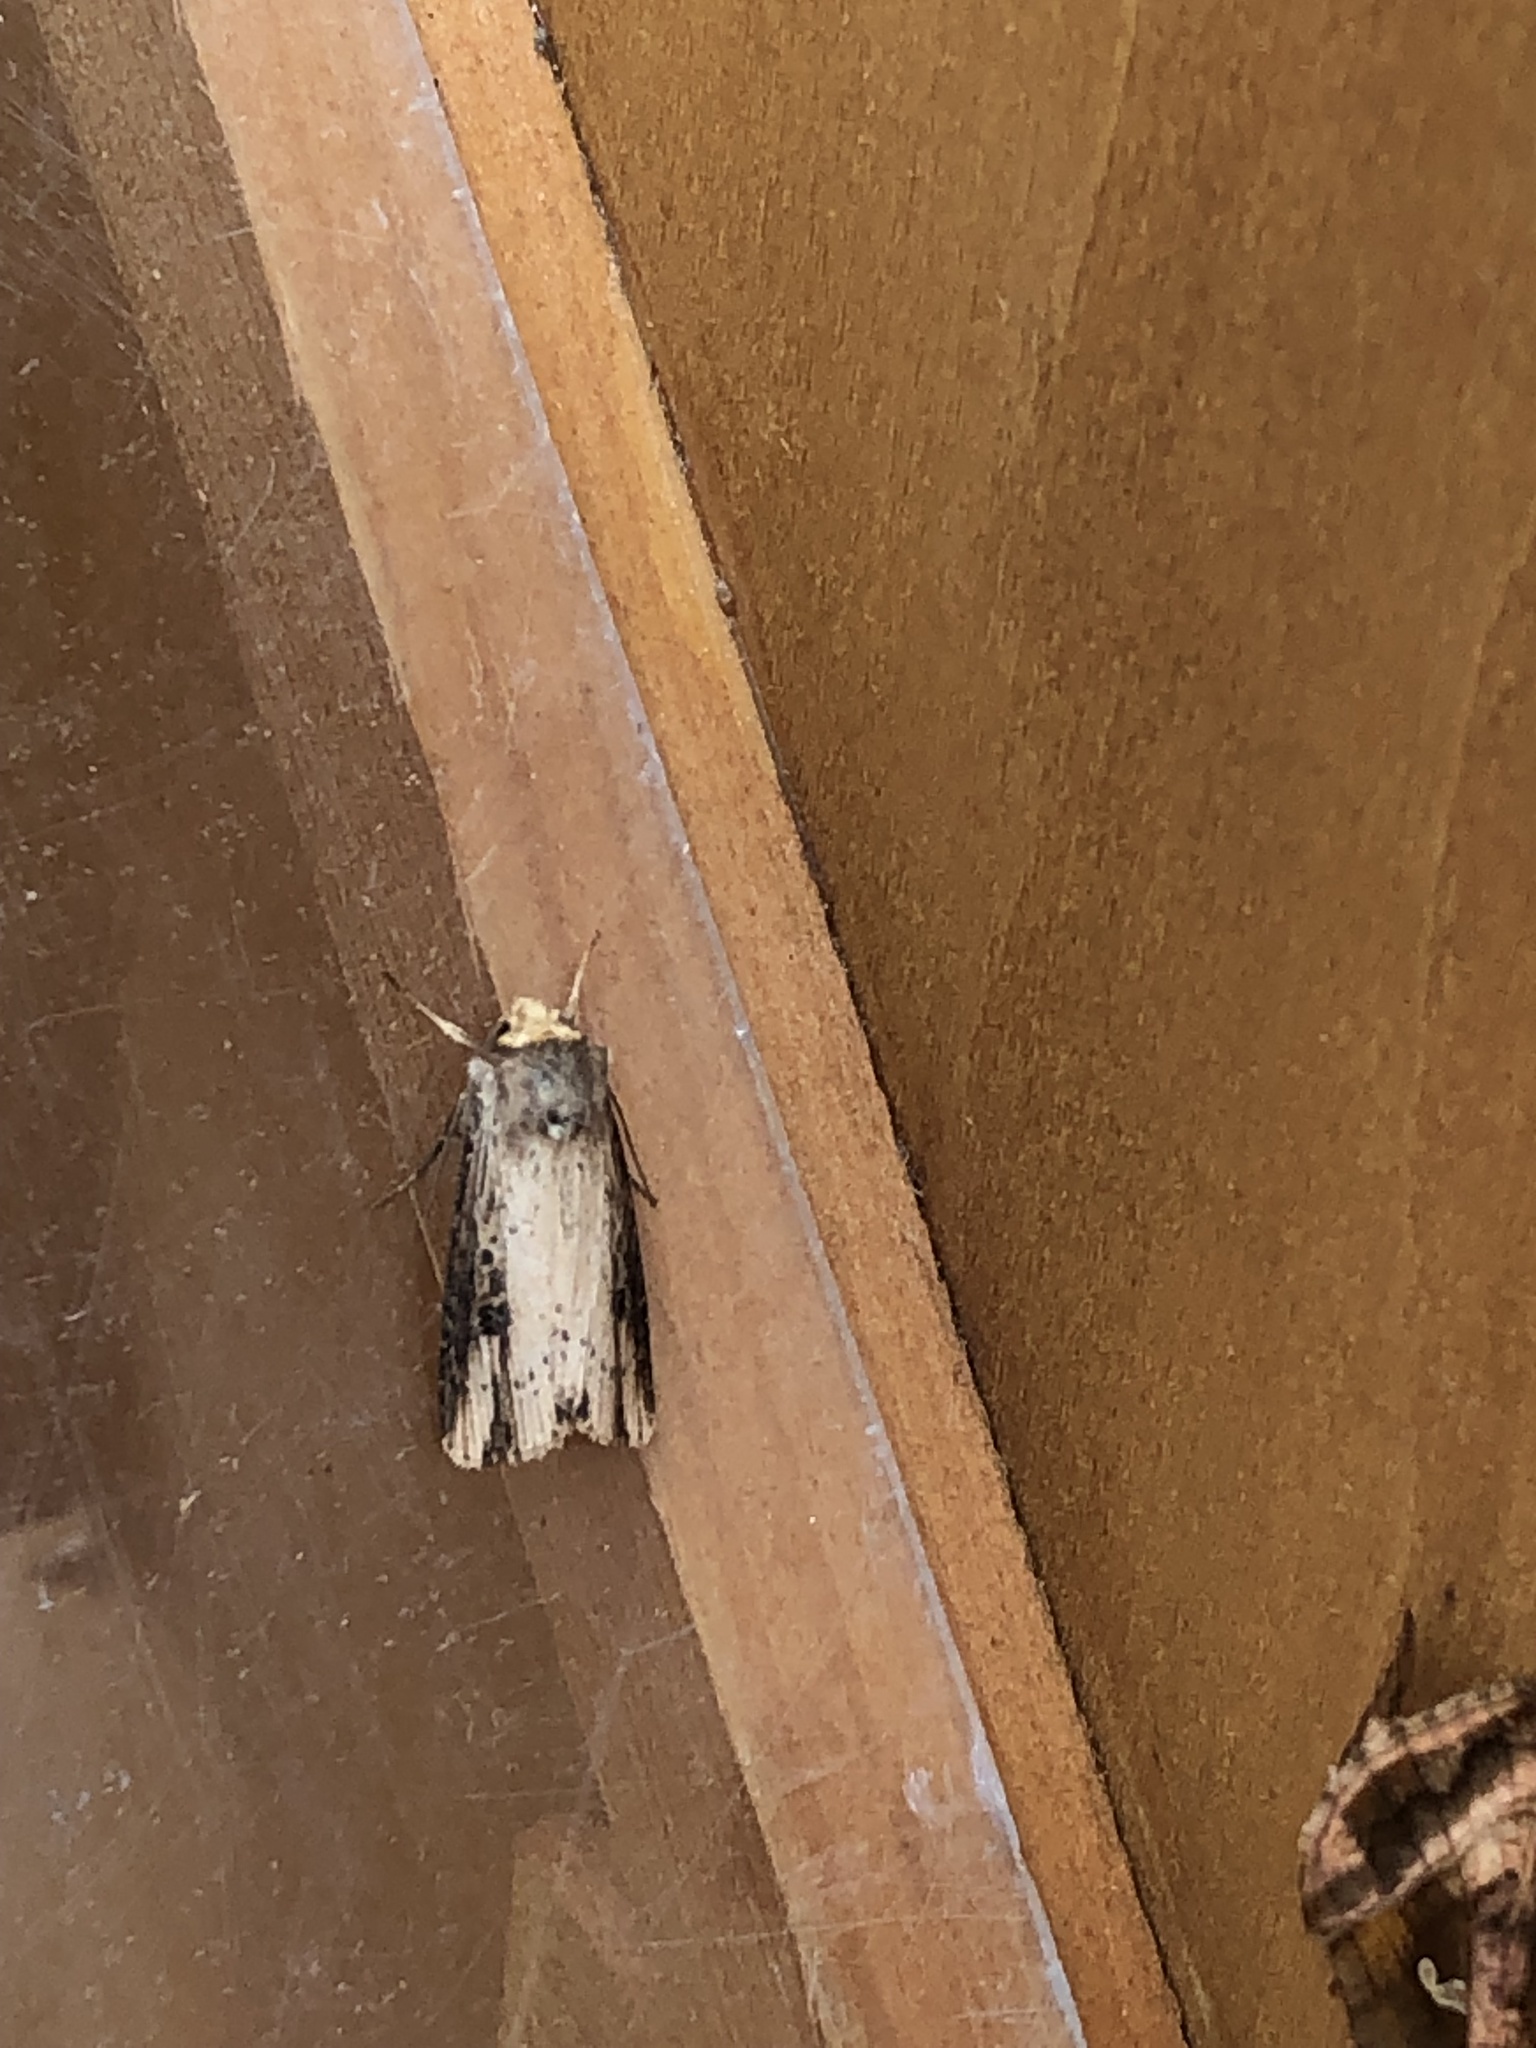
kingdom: Animalia
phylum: Arthropoda
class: Insecta
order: Lepidoptera
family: Noctuidae
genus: Axylia
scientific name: Axylia putris
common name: Flame
